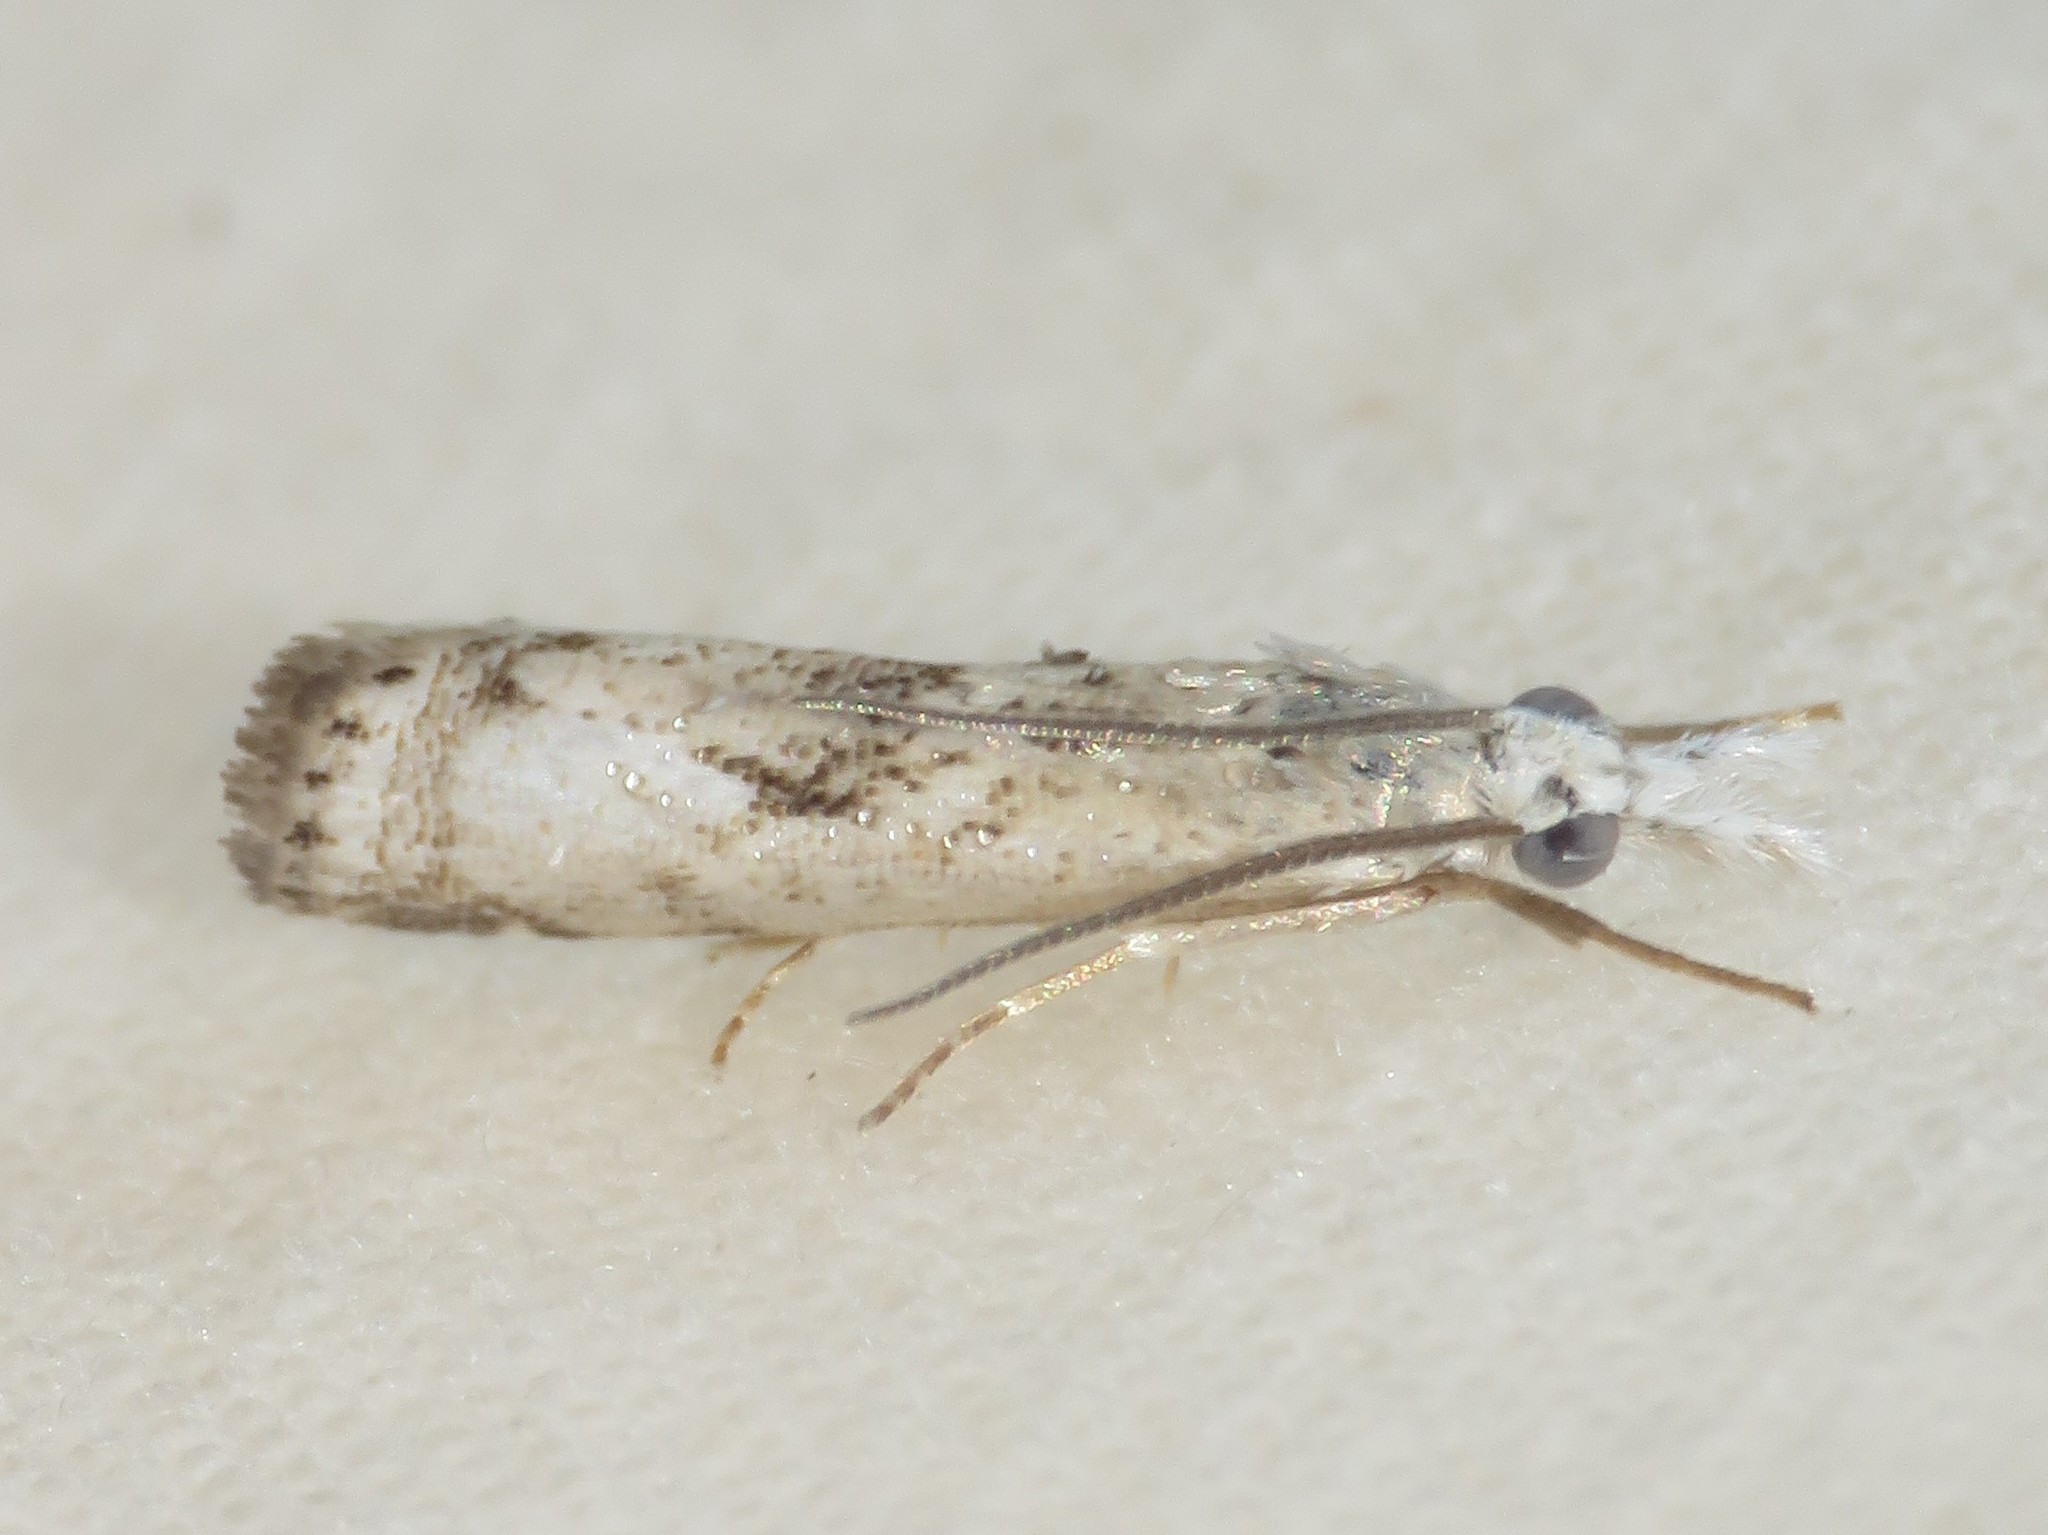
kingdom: Animalia
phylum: Arthropoda
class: Insecta
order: Lepidoptera
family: Crambidae
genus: Microcrambus
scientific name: Microcrambus immunellus
